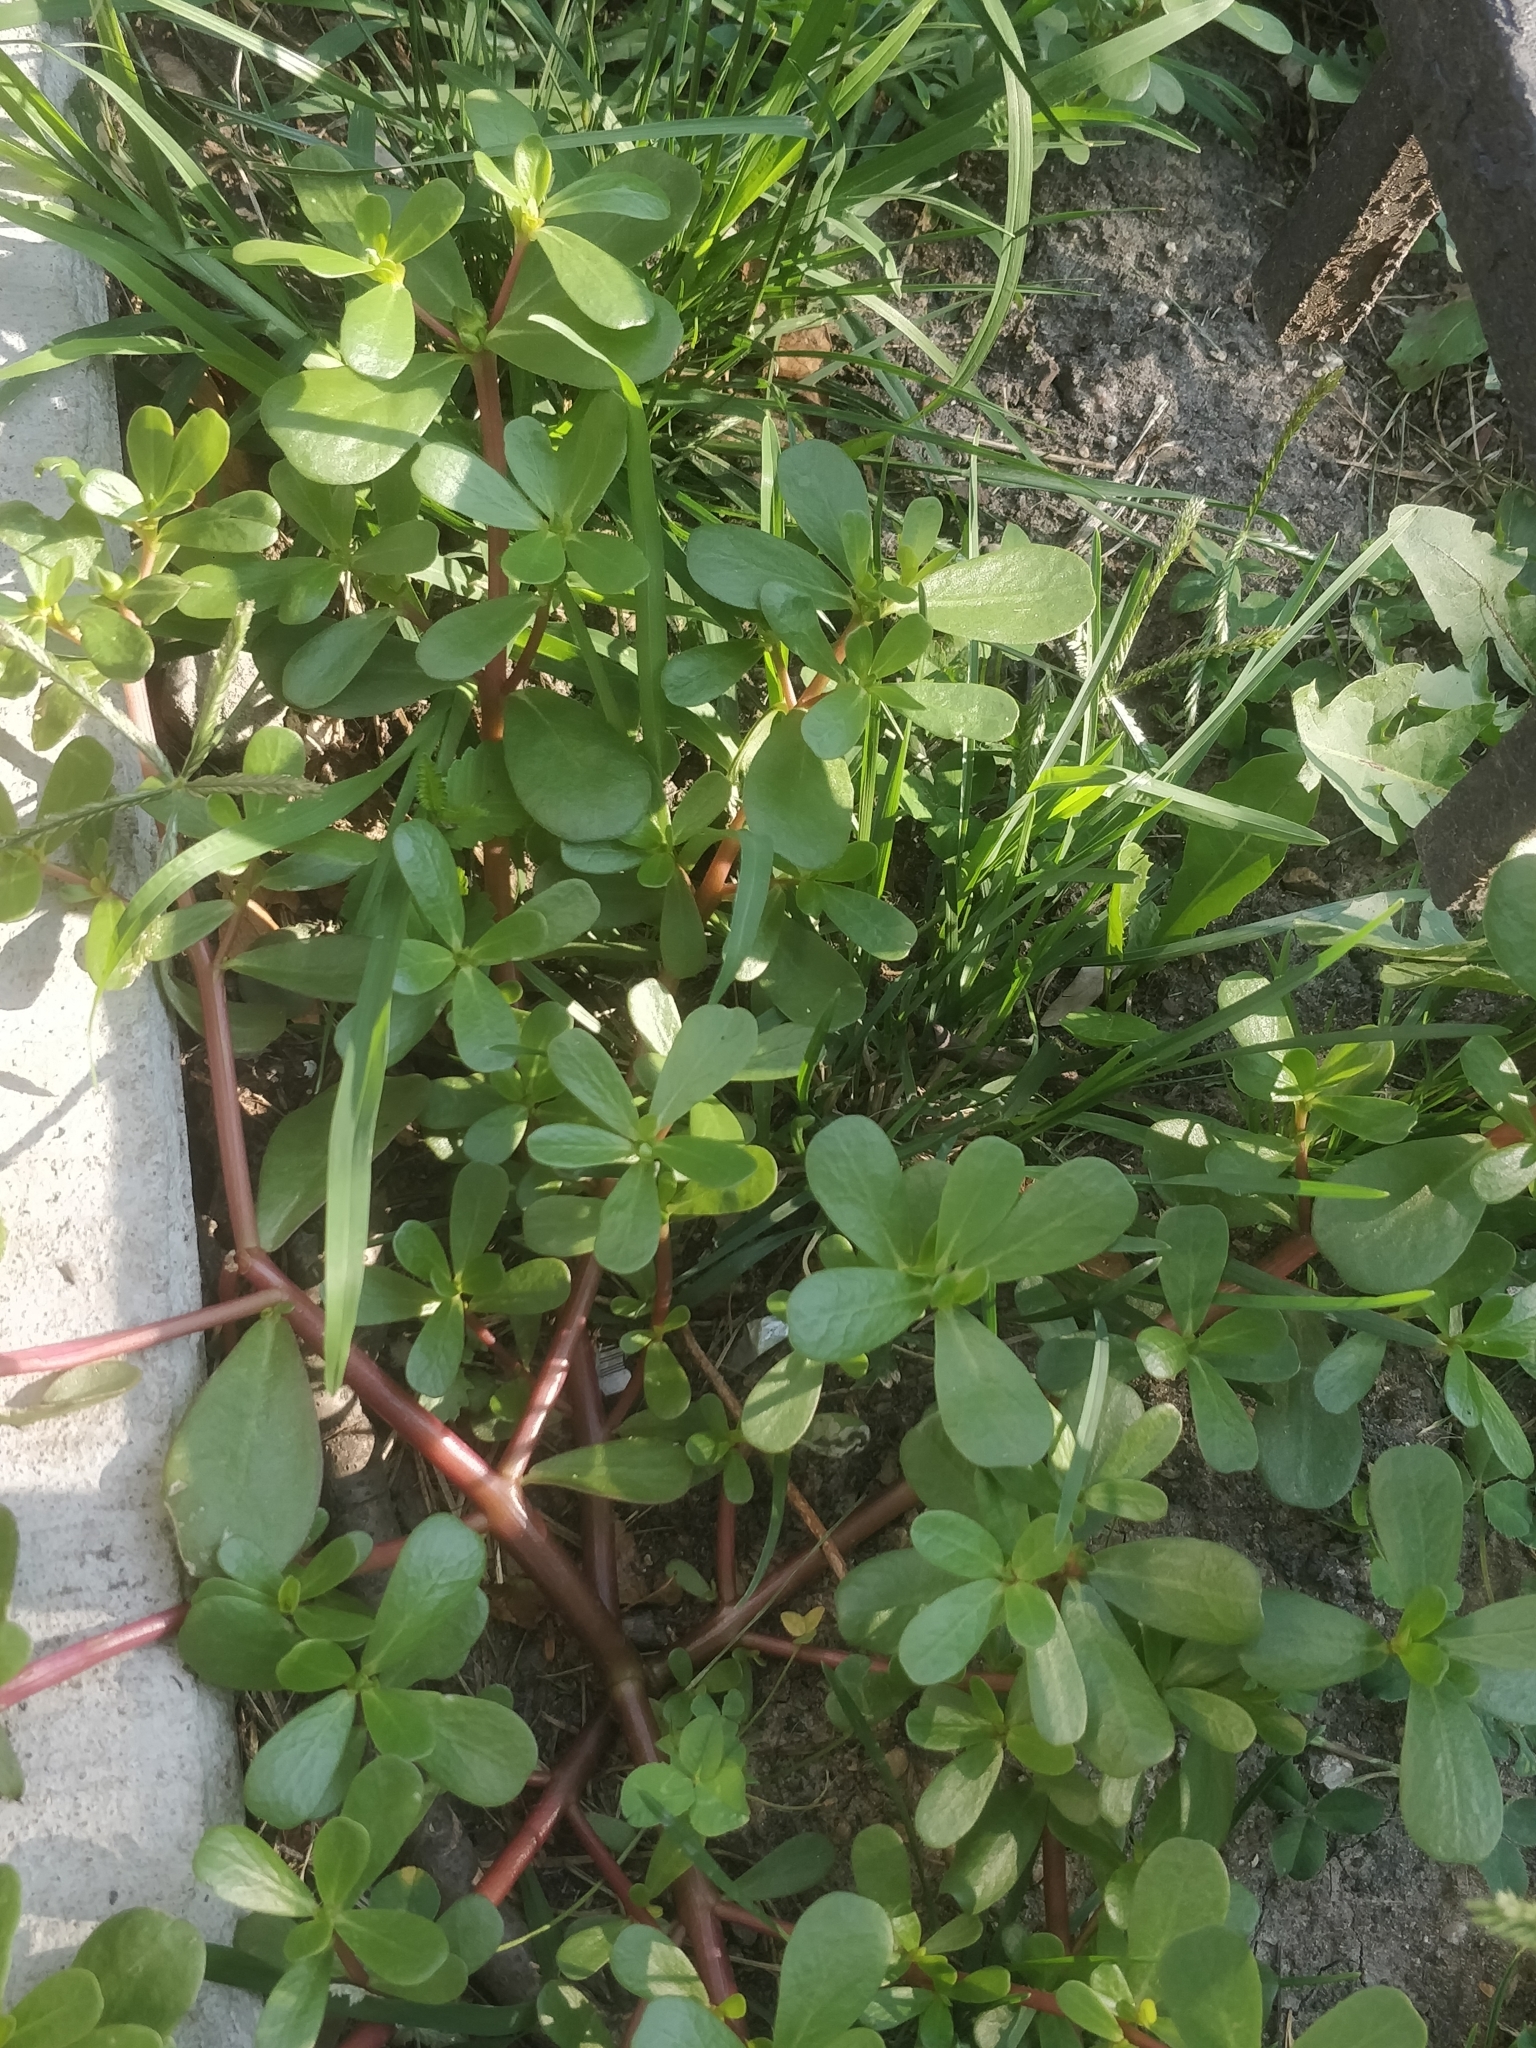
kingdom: Plantae
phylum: Tracheophyta
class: Magnoliopsida
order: Caryophyllales
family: Portulacaceae
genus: Portulaca
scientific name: Portulaca oleracea
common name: Common purslane
